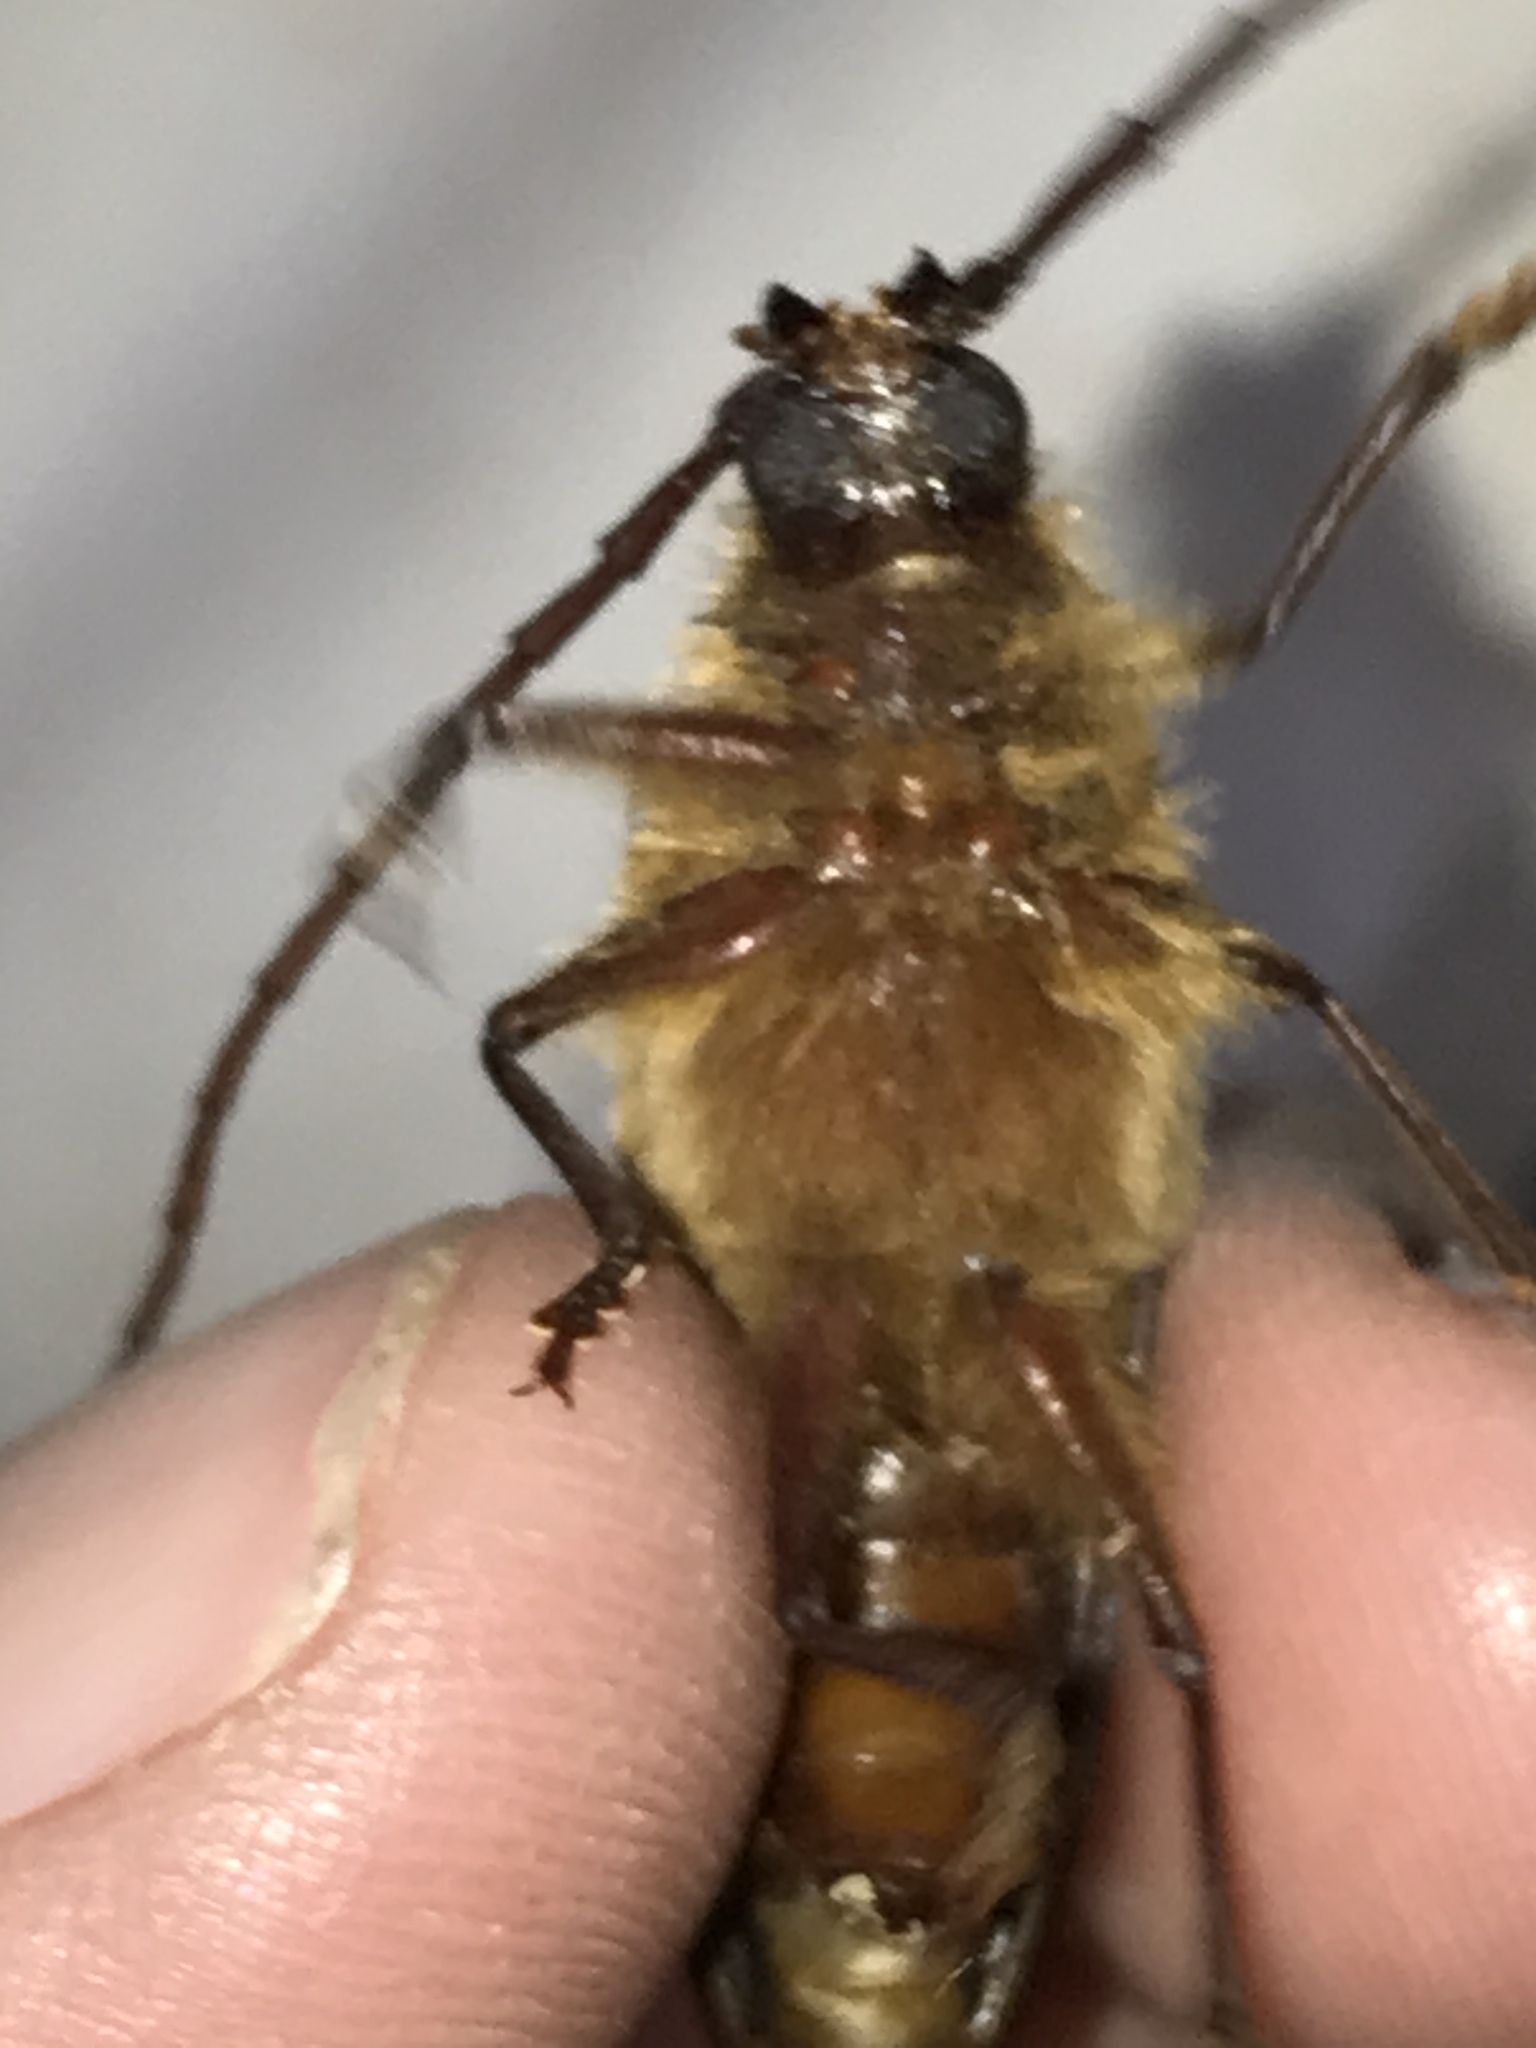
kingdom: Animalia
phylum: Arthropoda
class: Insecta
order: Coleoptera
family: Cerambycidae
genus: Tragosoma
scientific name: Tragosoma harrisii
